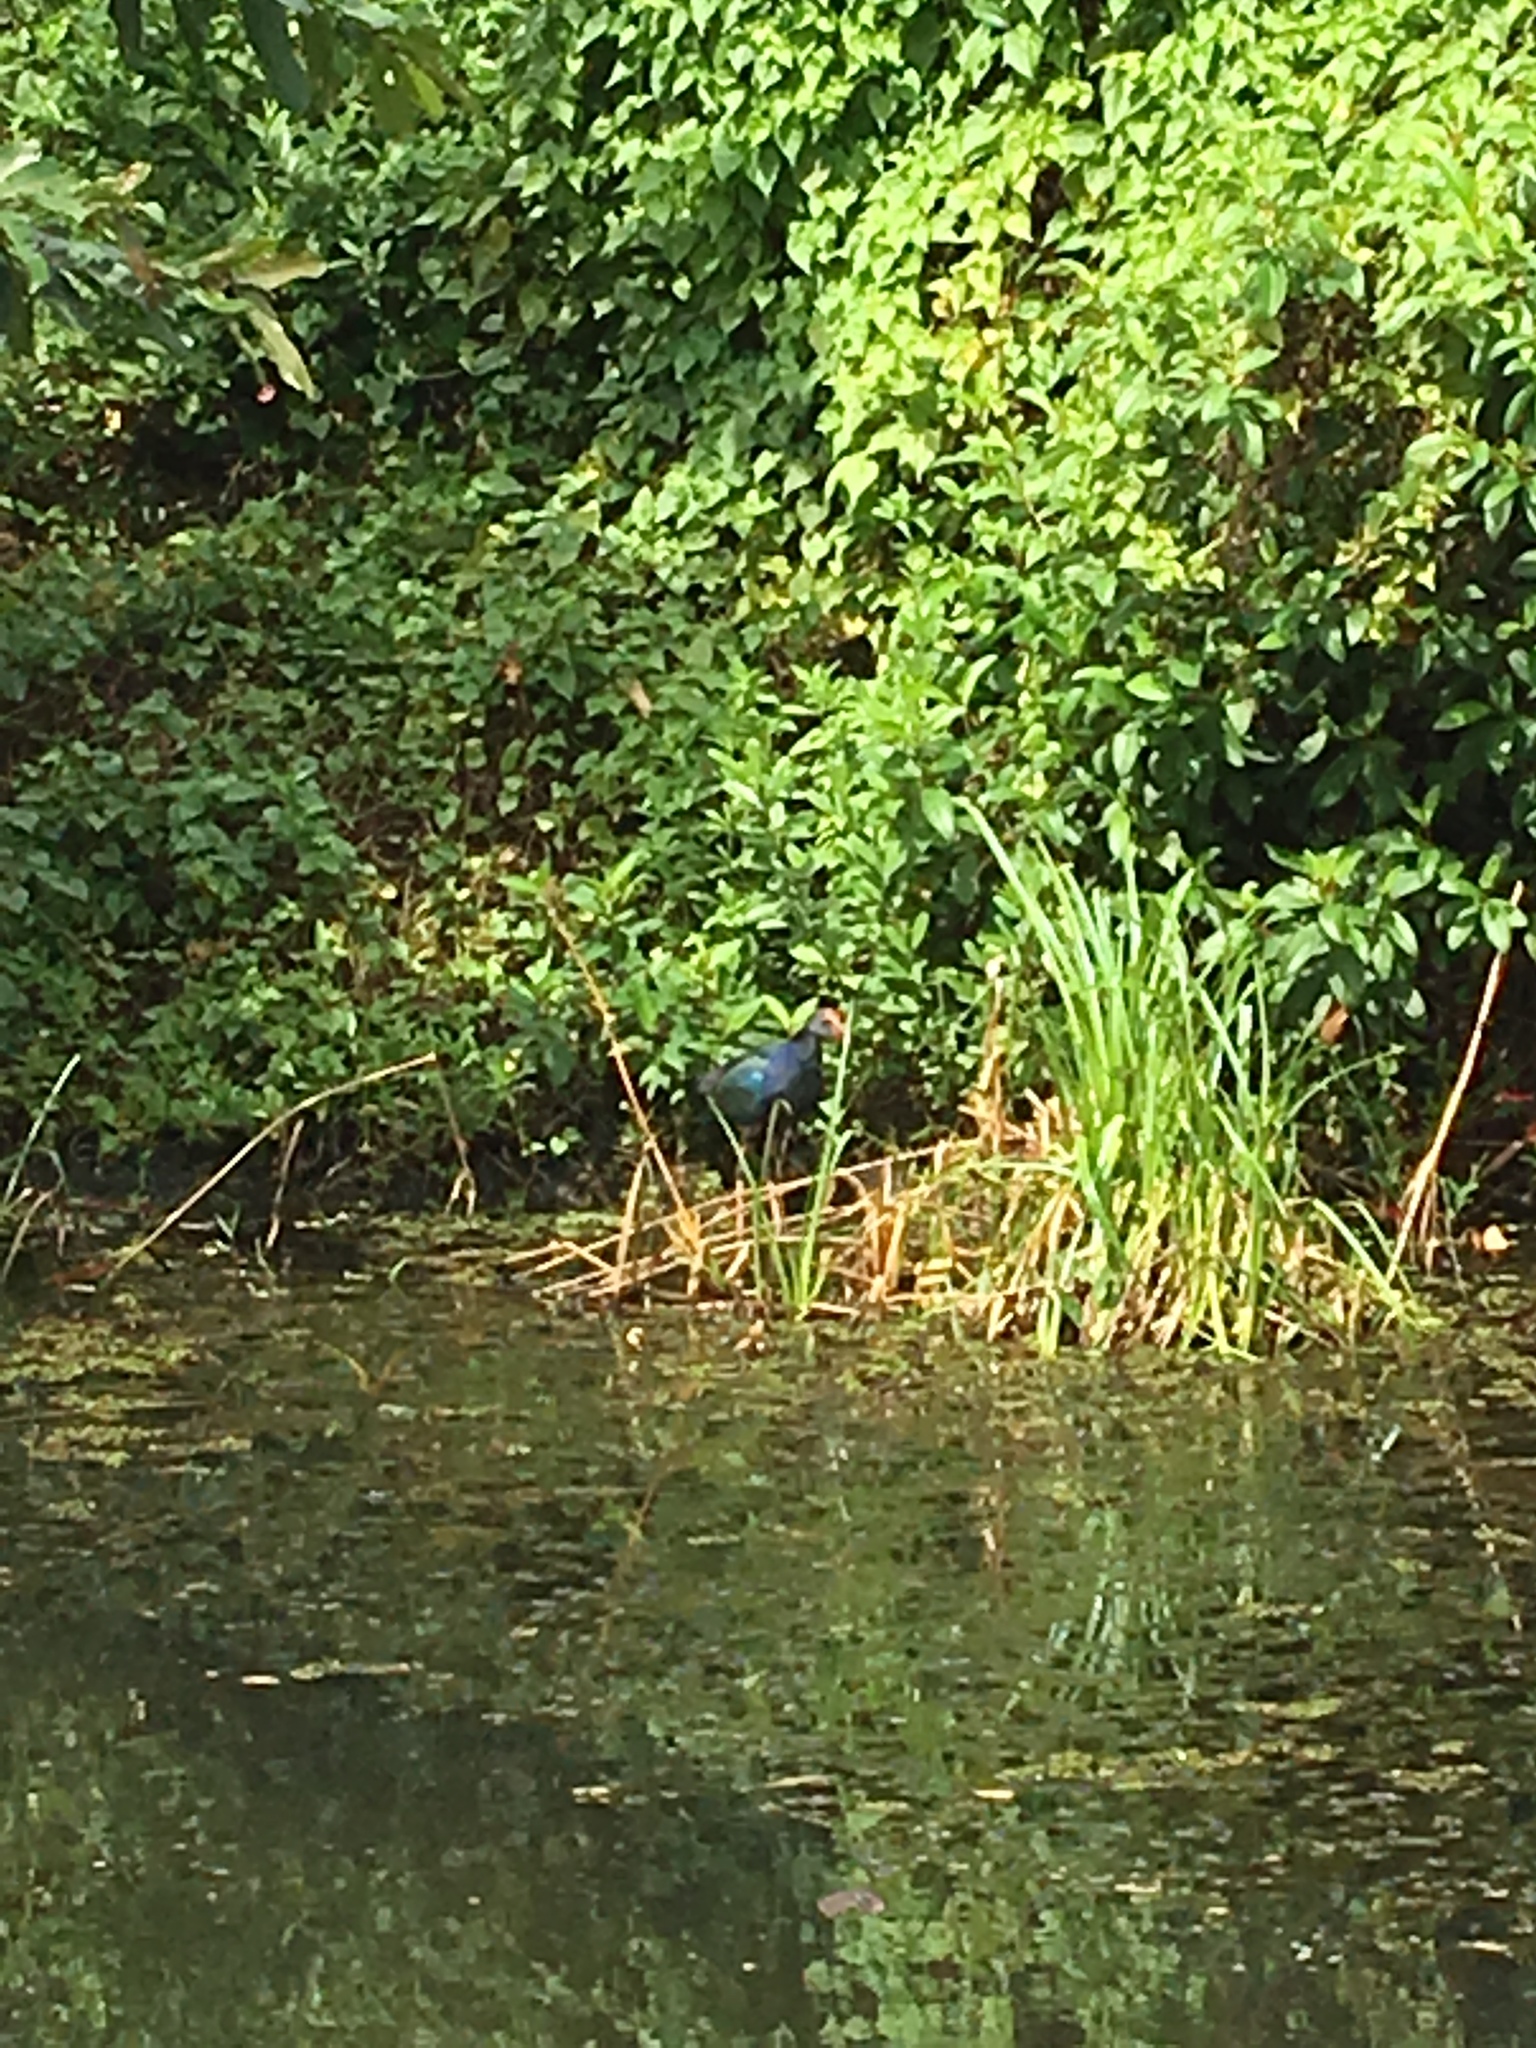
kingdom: Animalia
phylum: Chordata
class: Aves
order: Gruiformes
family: Rallidae
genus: Porphyrio
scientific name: Porphyrio porphyrio
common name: Purple swamphen
